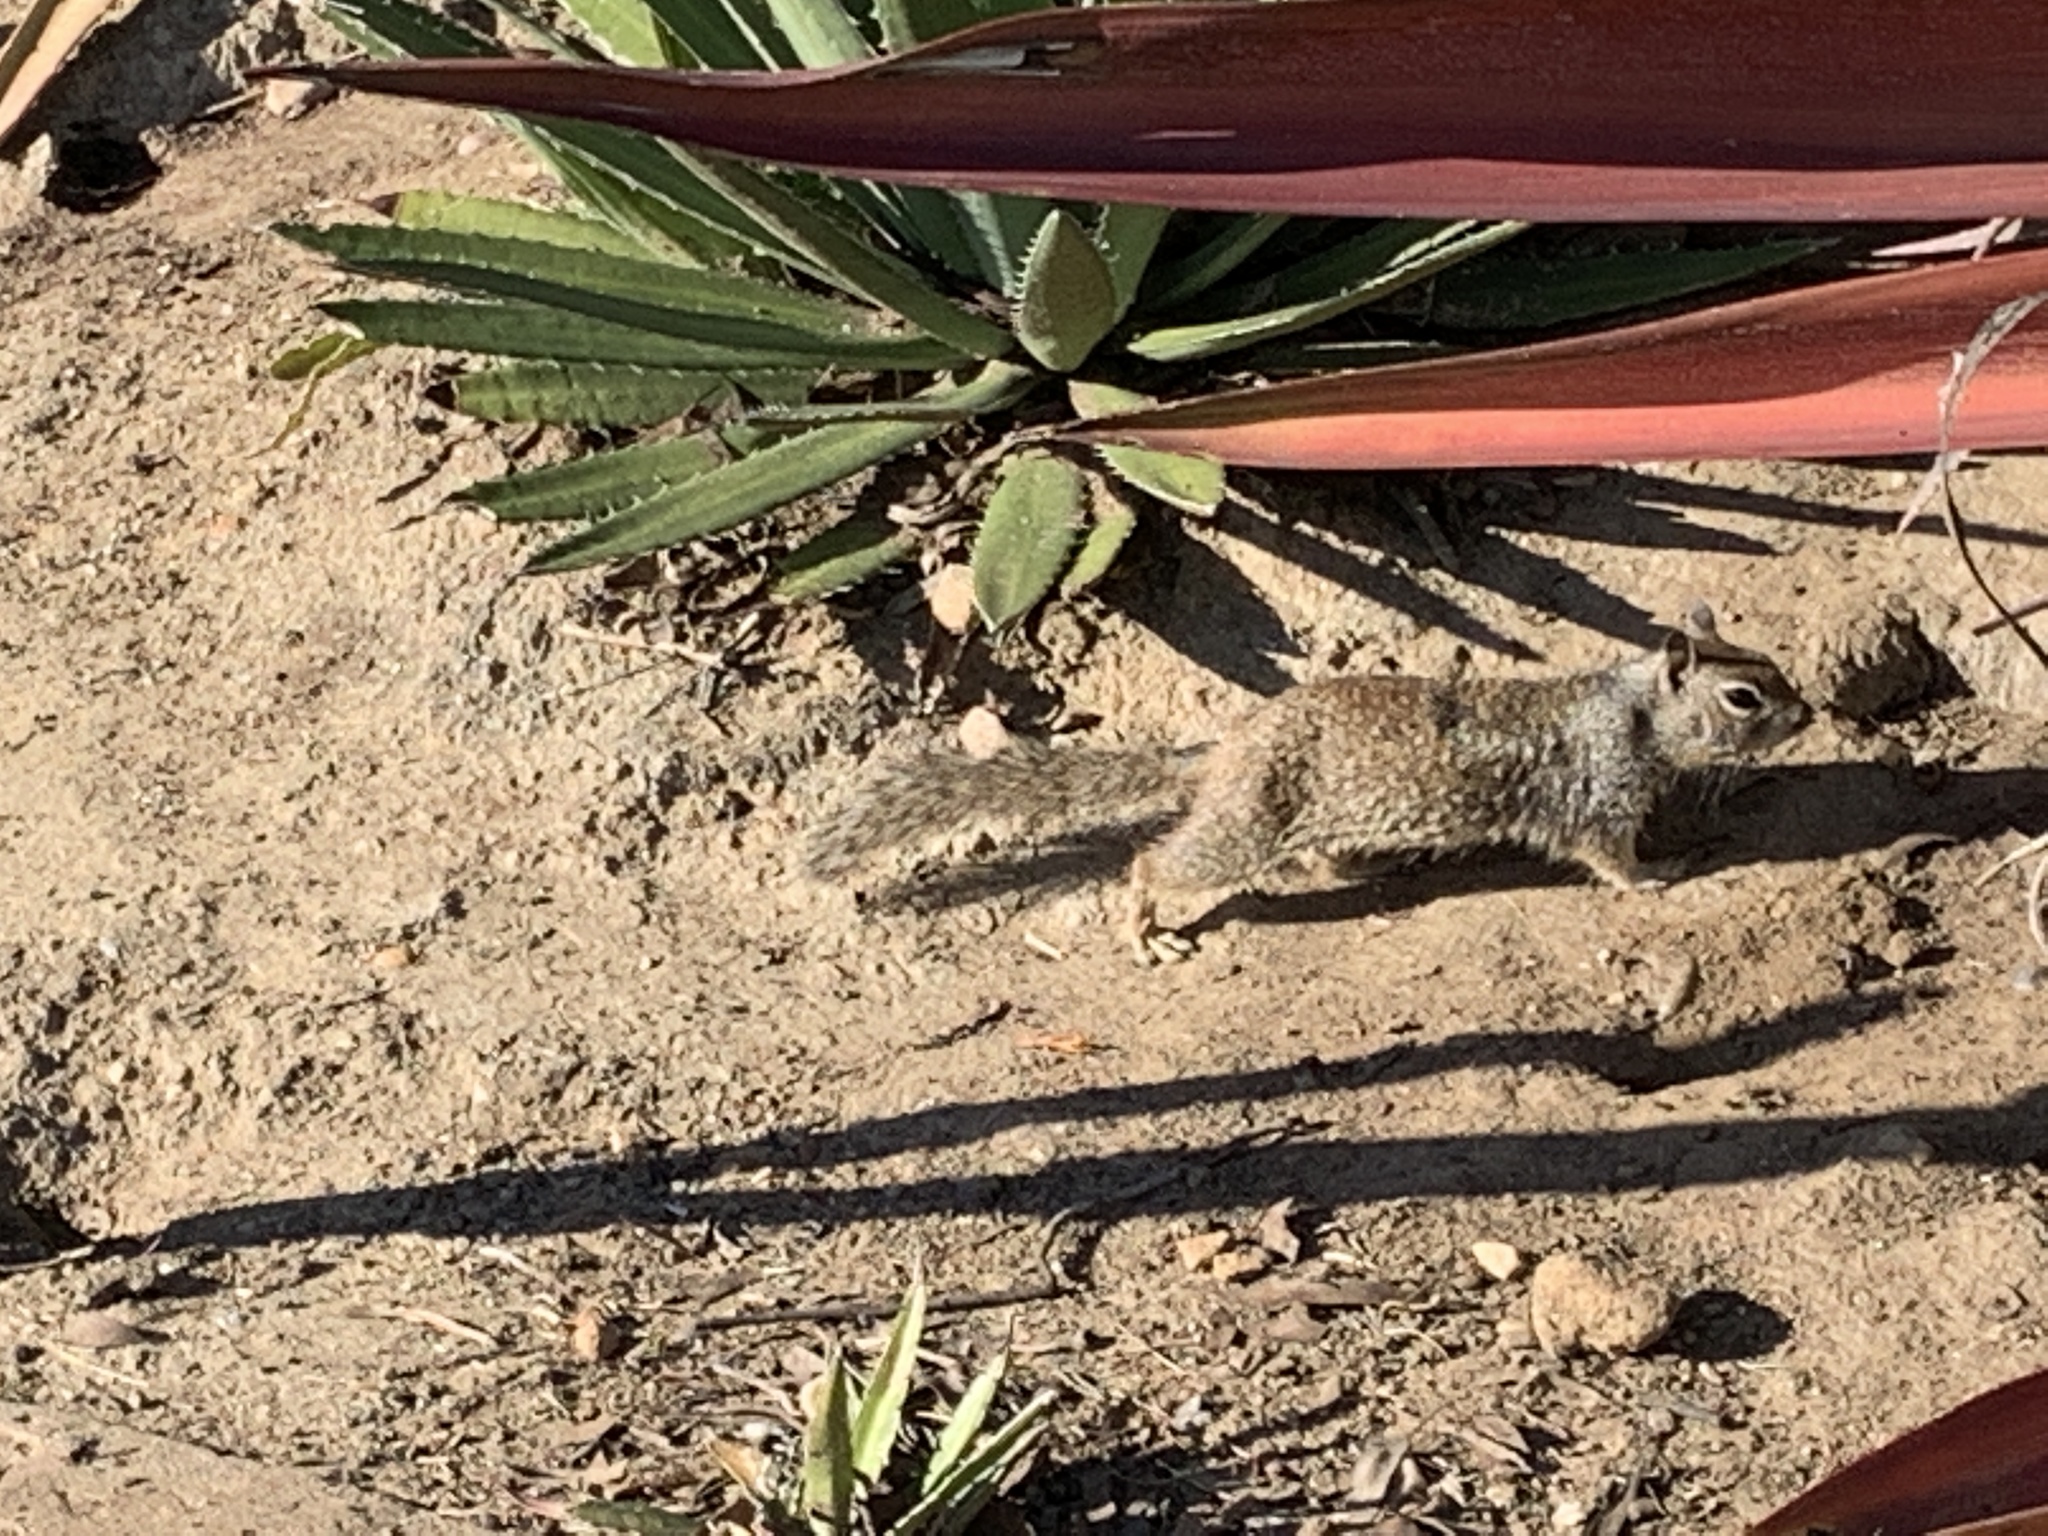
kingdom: Animalia
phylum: Chordata
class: Mammalia
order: Rodentia
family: Sciuridae
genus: Otospermophilus
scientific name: Otospermophilus beecheyi
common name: California ground squirrel
